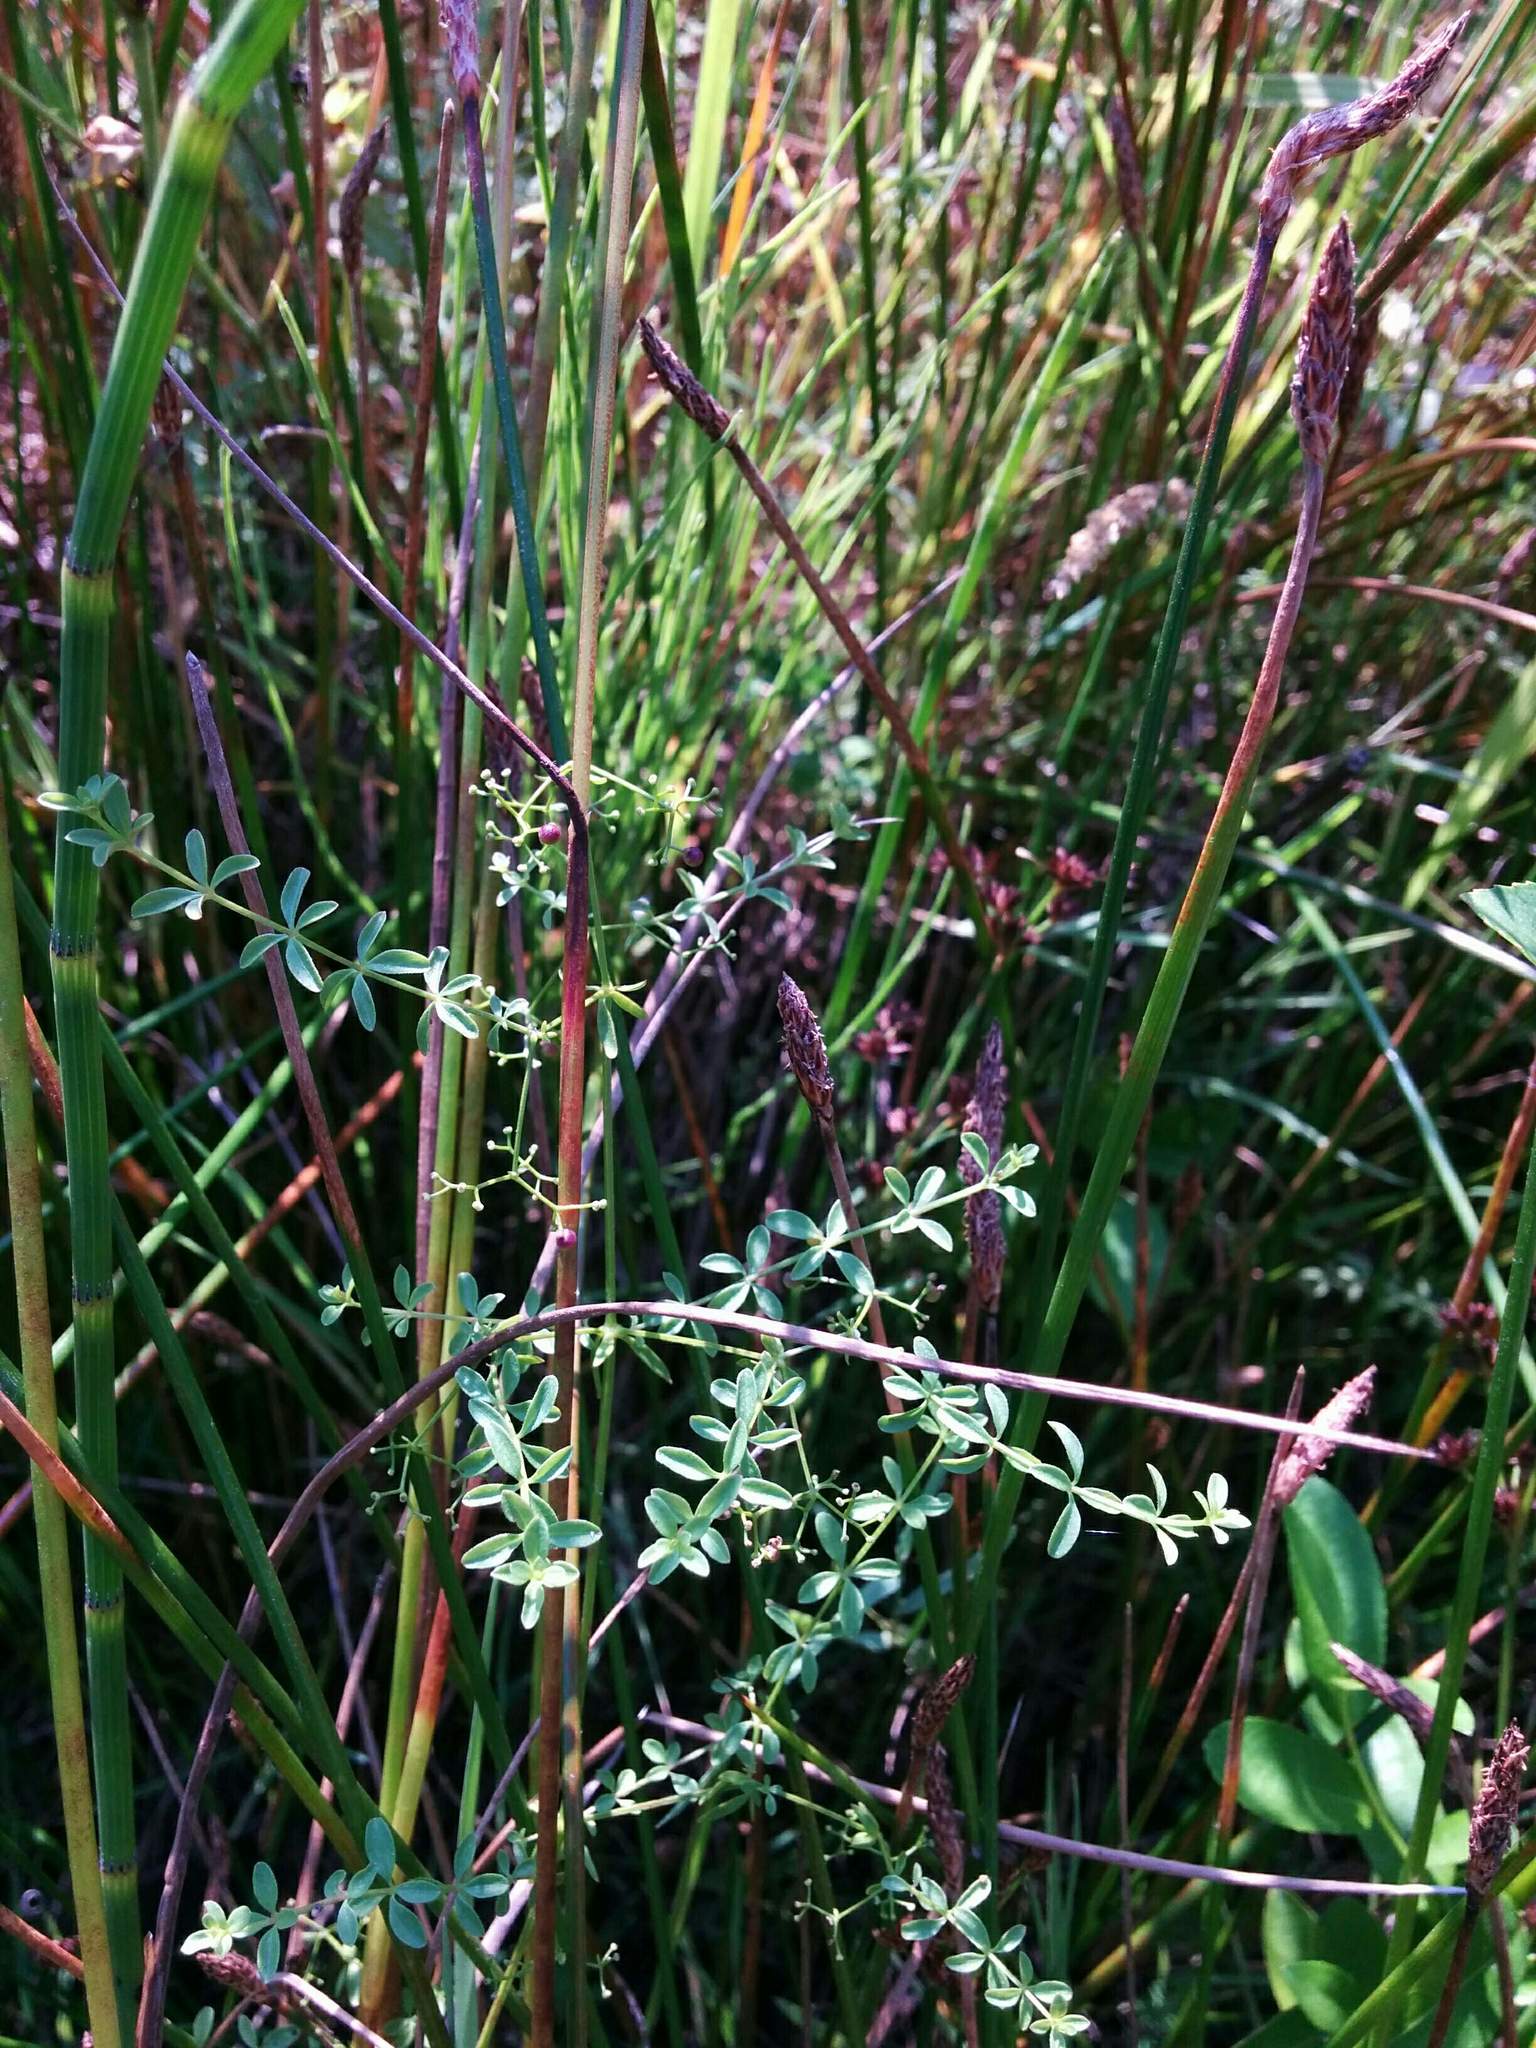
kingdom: Plantae
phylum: Tracheophyta
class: Magnoliopsida
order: Gentianales
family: Rubiaceae
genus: Galium
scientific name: Galium trifidum
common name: Small bedstraw
